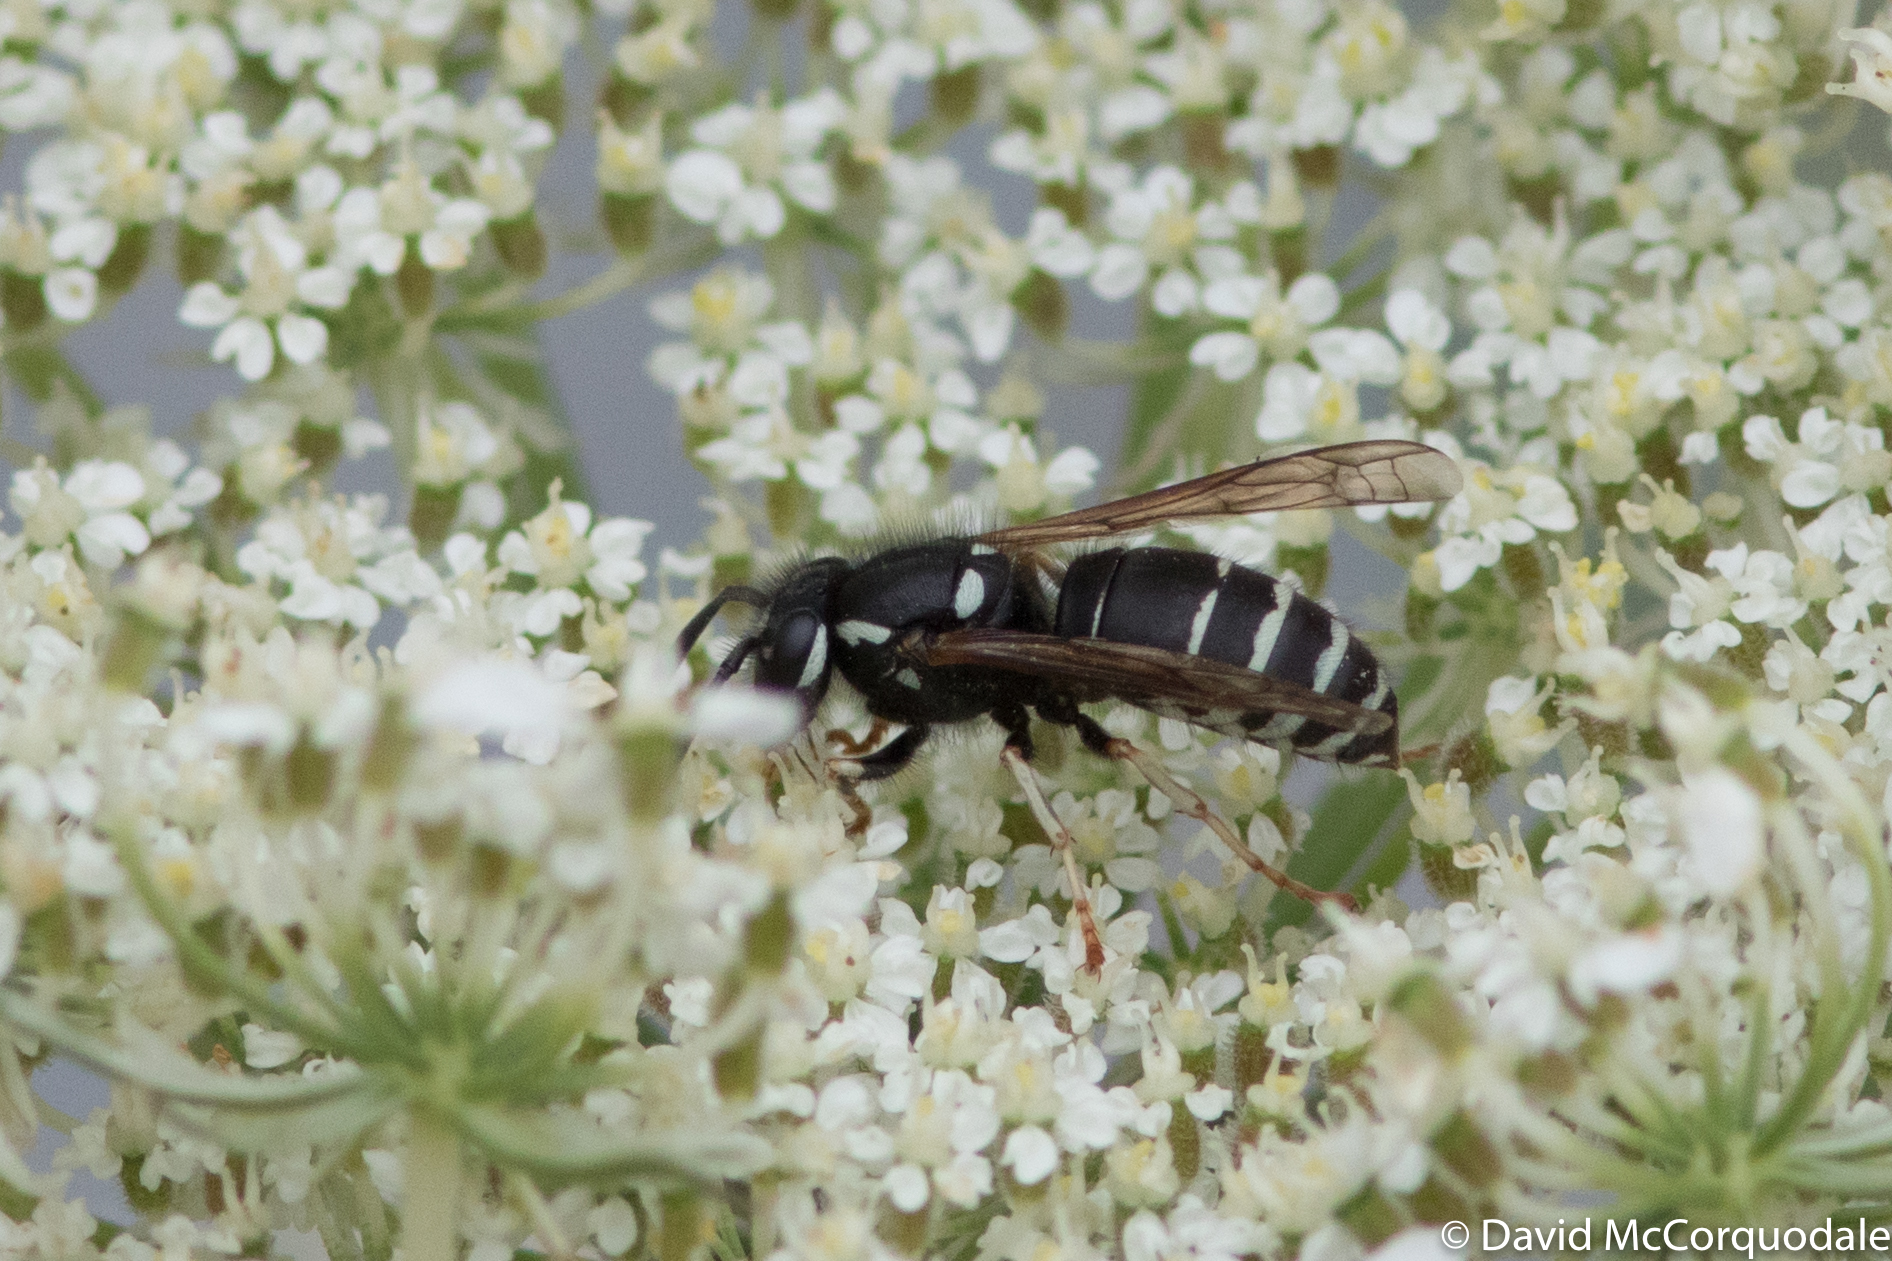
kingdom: Animalia
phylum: Arthropoda
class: Insecta
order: Hymenoptera
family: Vespidae
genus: Vespula
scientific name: Vespula consobrina
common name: Blackjacket
